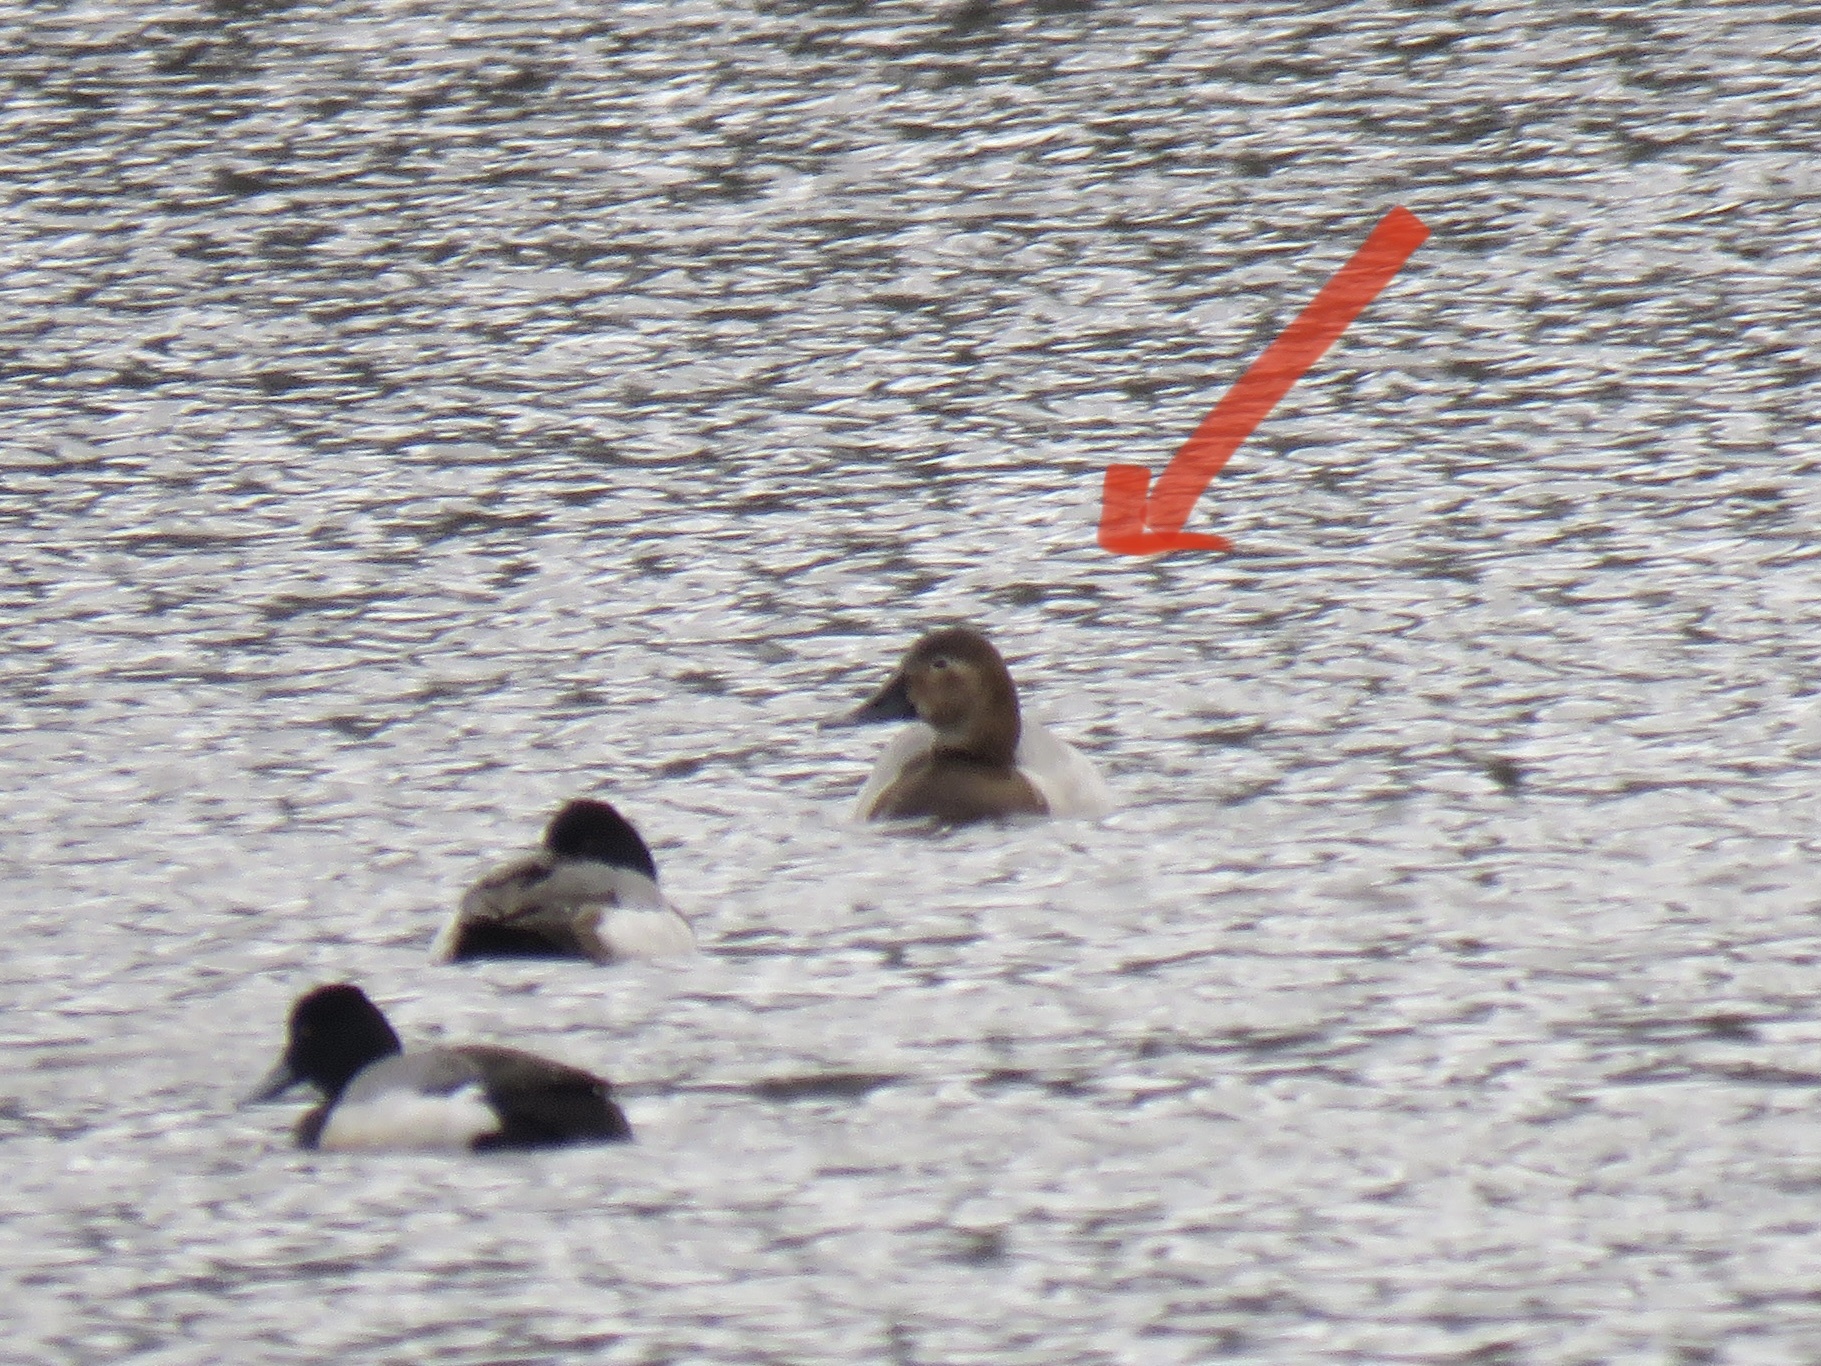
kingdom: Animalia
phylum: Chordata
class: Aves
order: Anseriformes
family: Anatidae
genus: Aythya
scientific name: Aythya valisineria
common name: Canvasback
